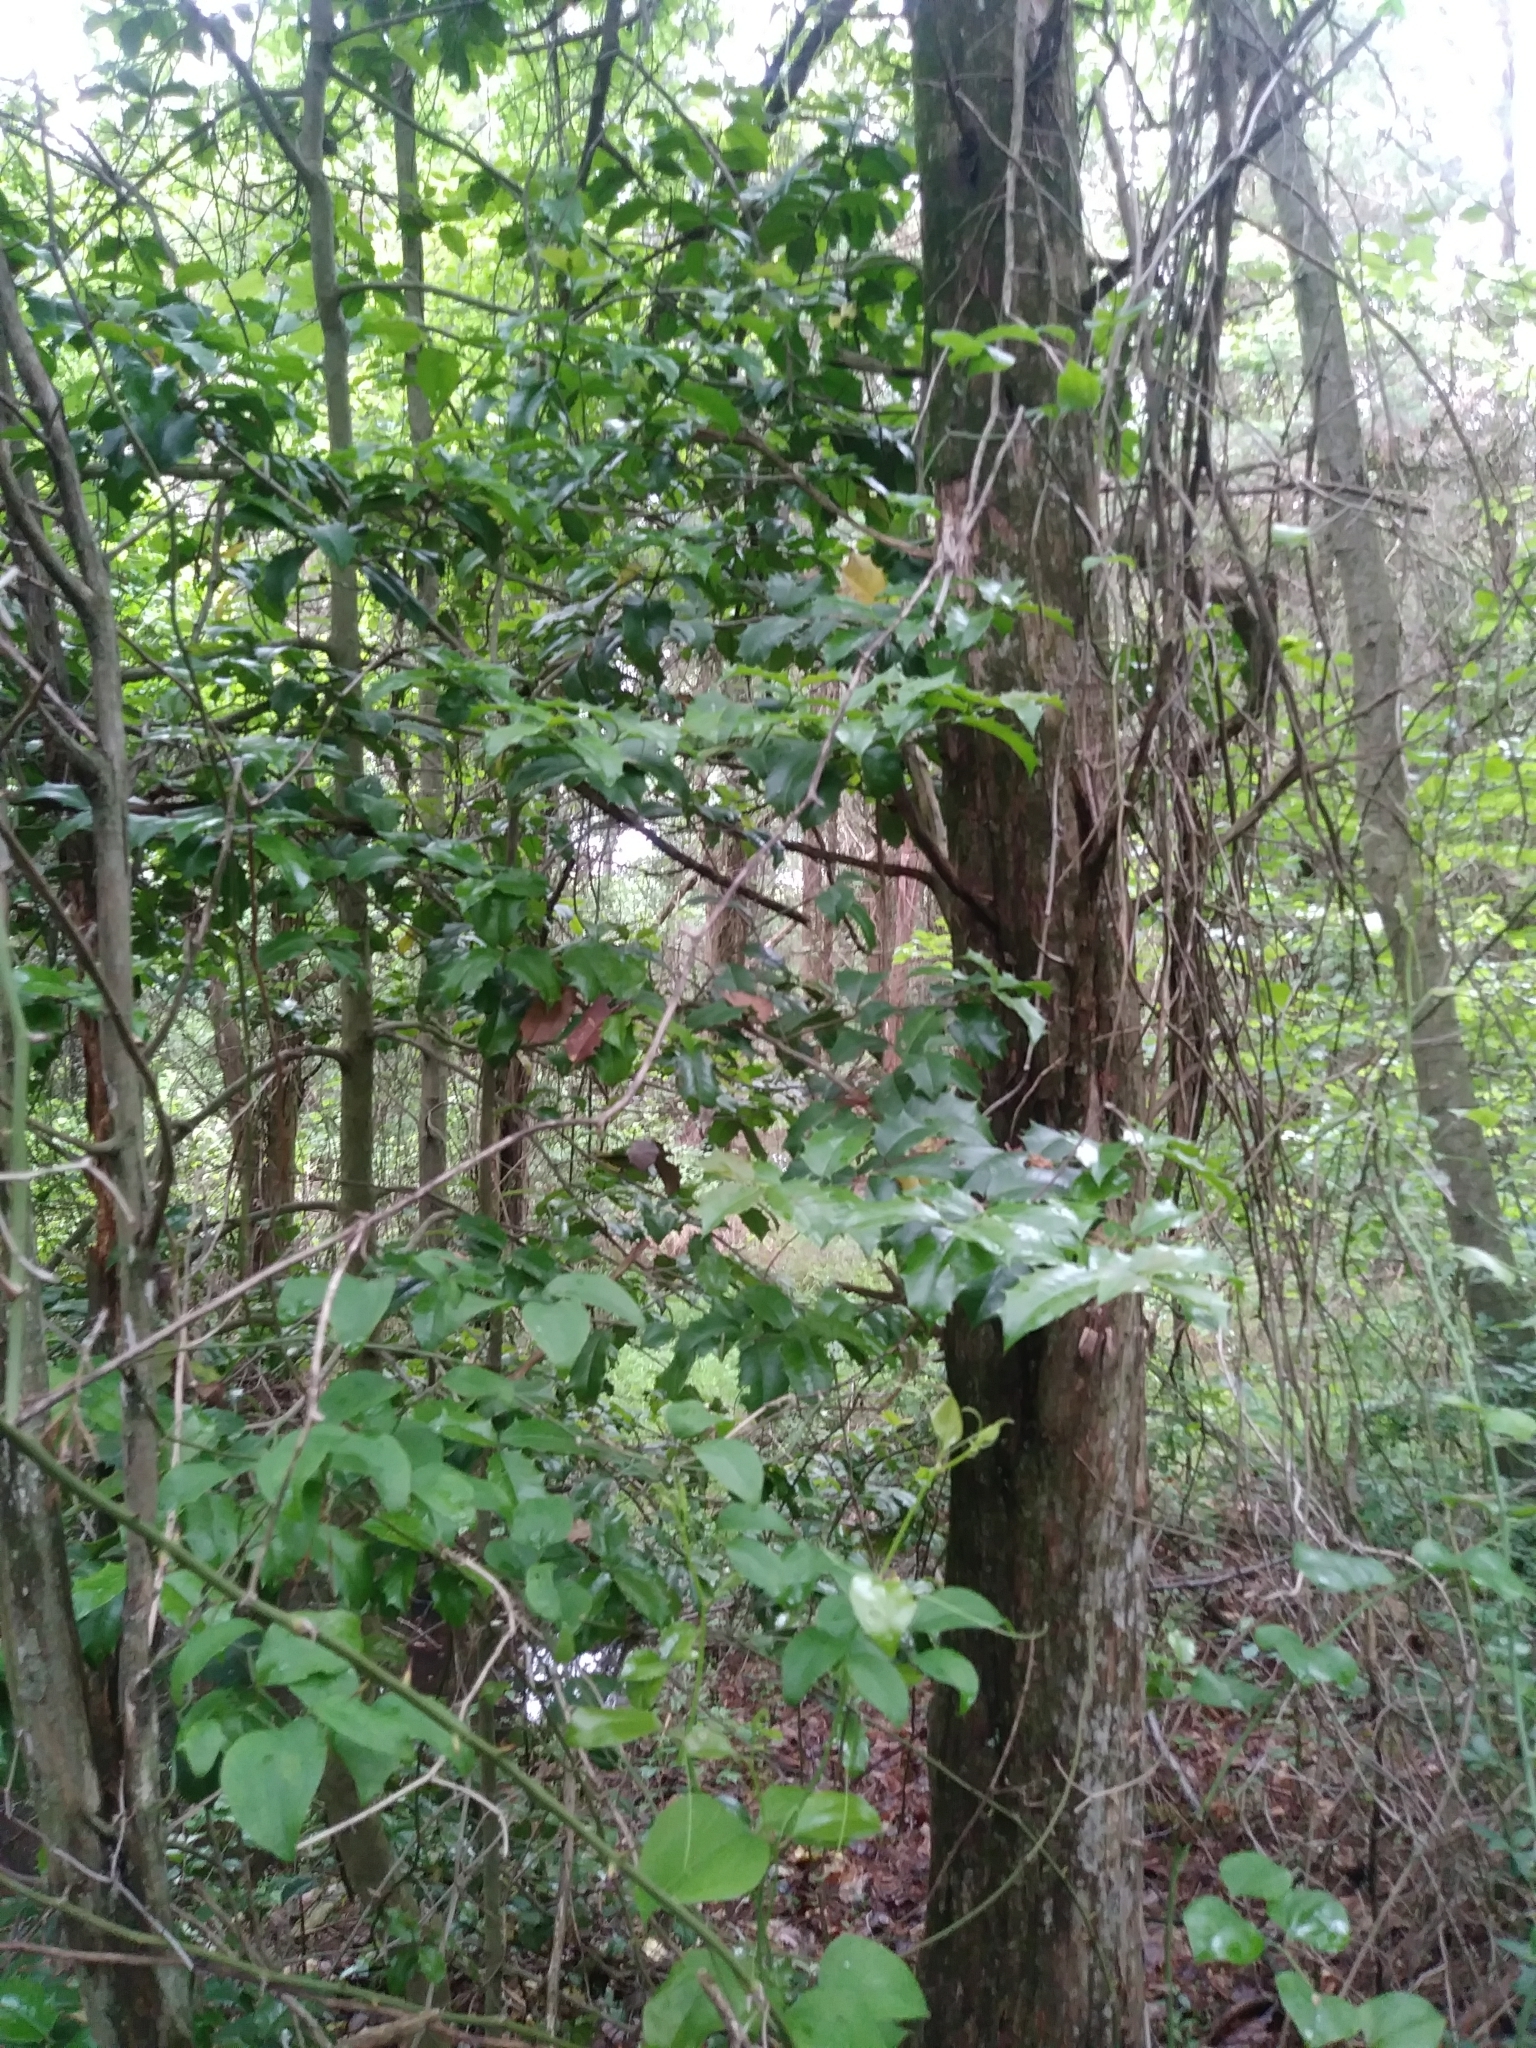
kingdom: Plantae
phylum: Tracheophyta
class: Magnoliopsida
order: Aquifoliales
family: Aquifoliaceae
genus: Ilex
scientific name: Ilex opaca
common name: American holly
